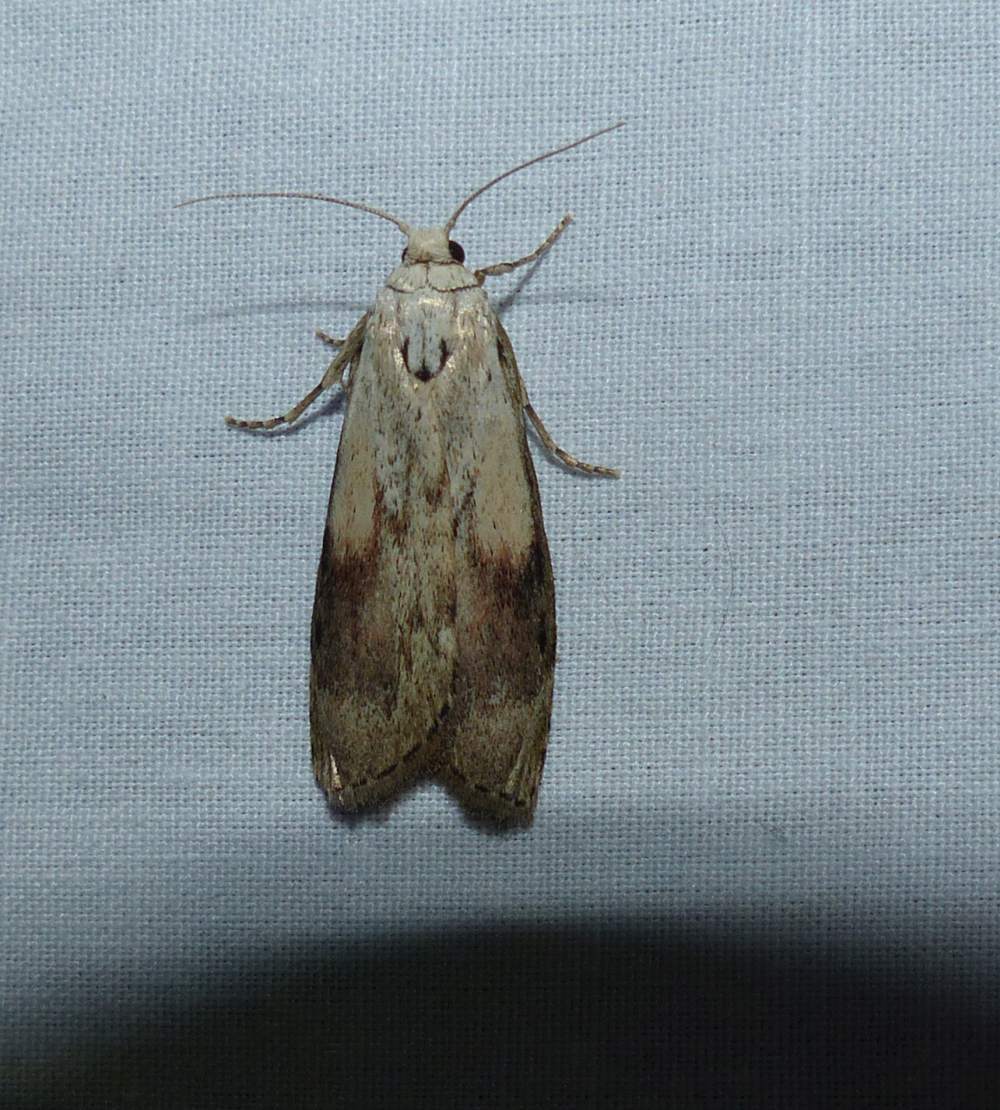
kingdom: Animalia
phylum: Arthropoda
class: Insecta
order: Lepidoptera
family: Pyralidae
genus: Aphomia
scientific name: Aphomia sociella
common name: Bee moth
